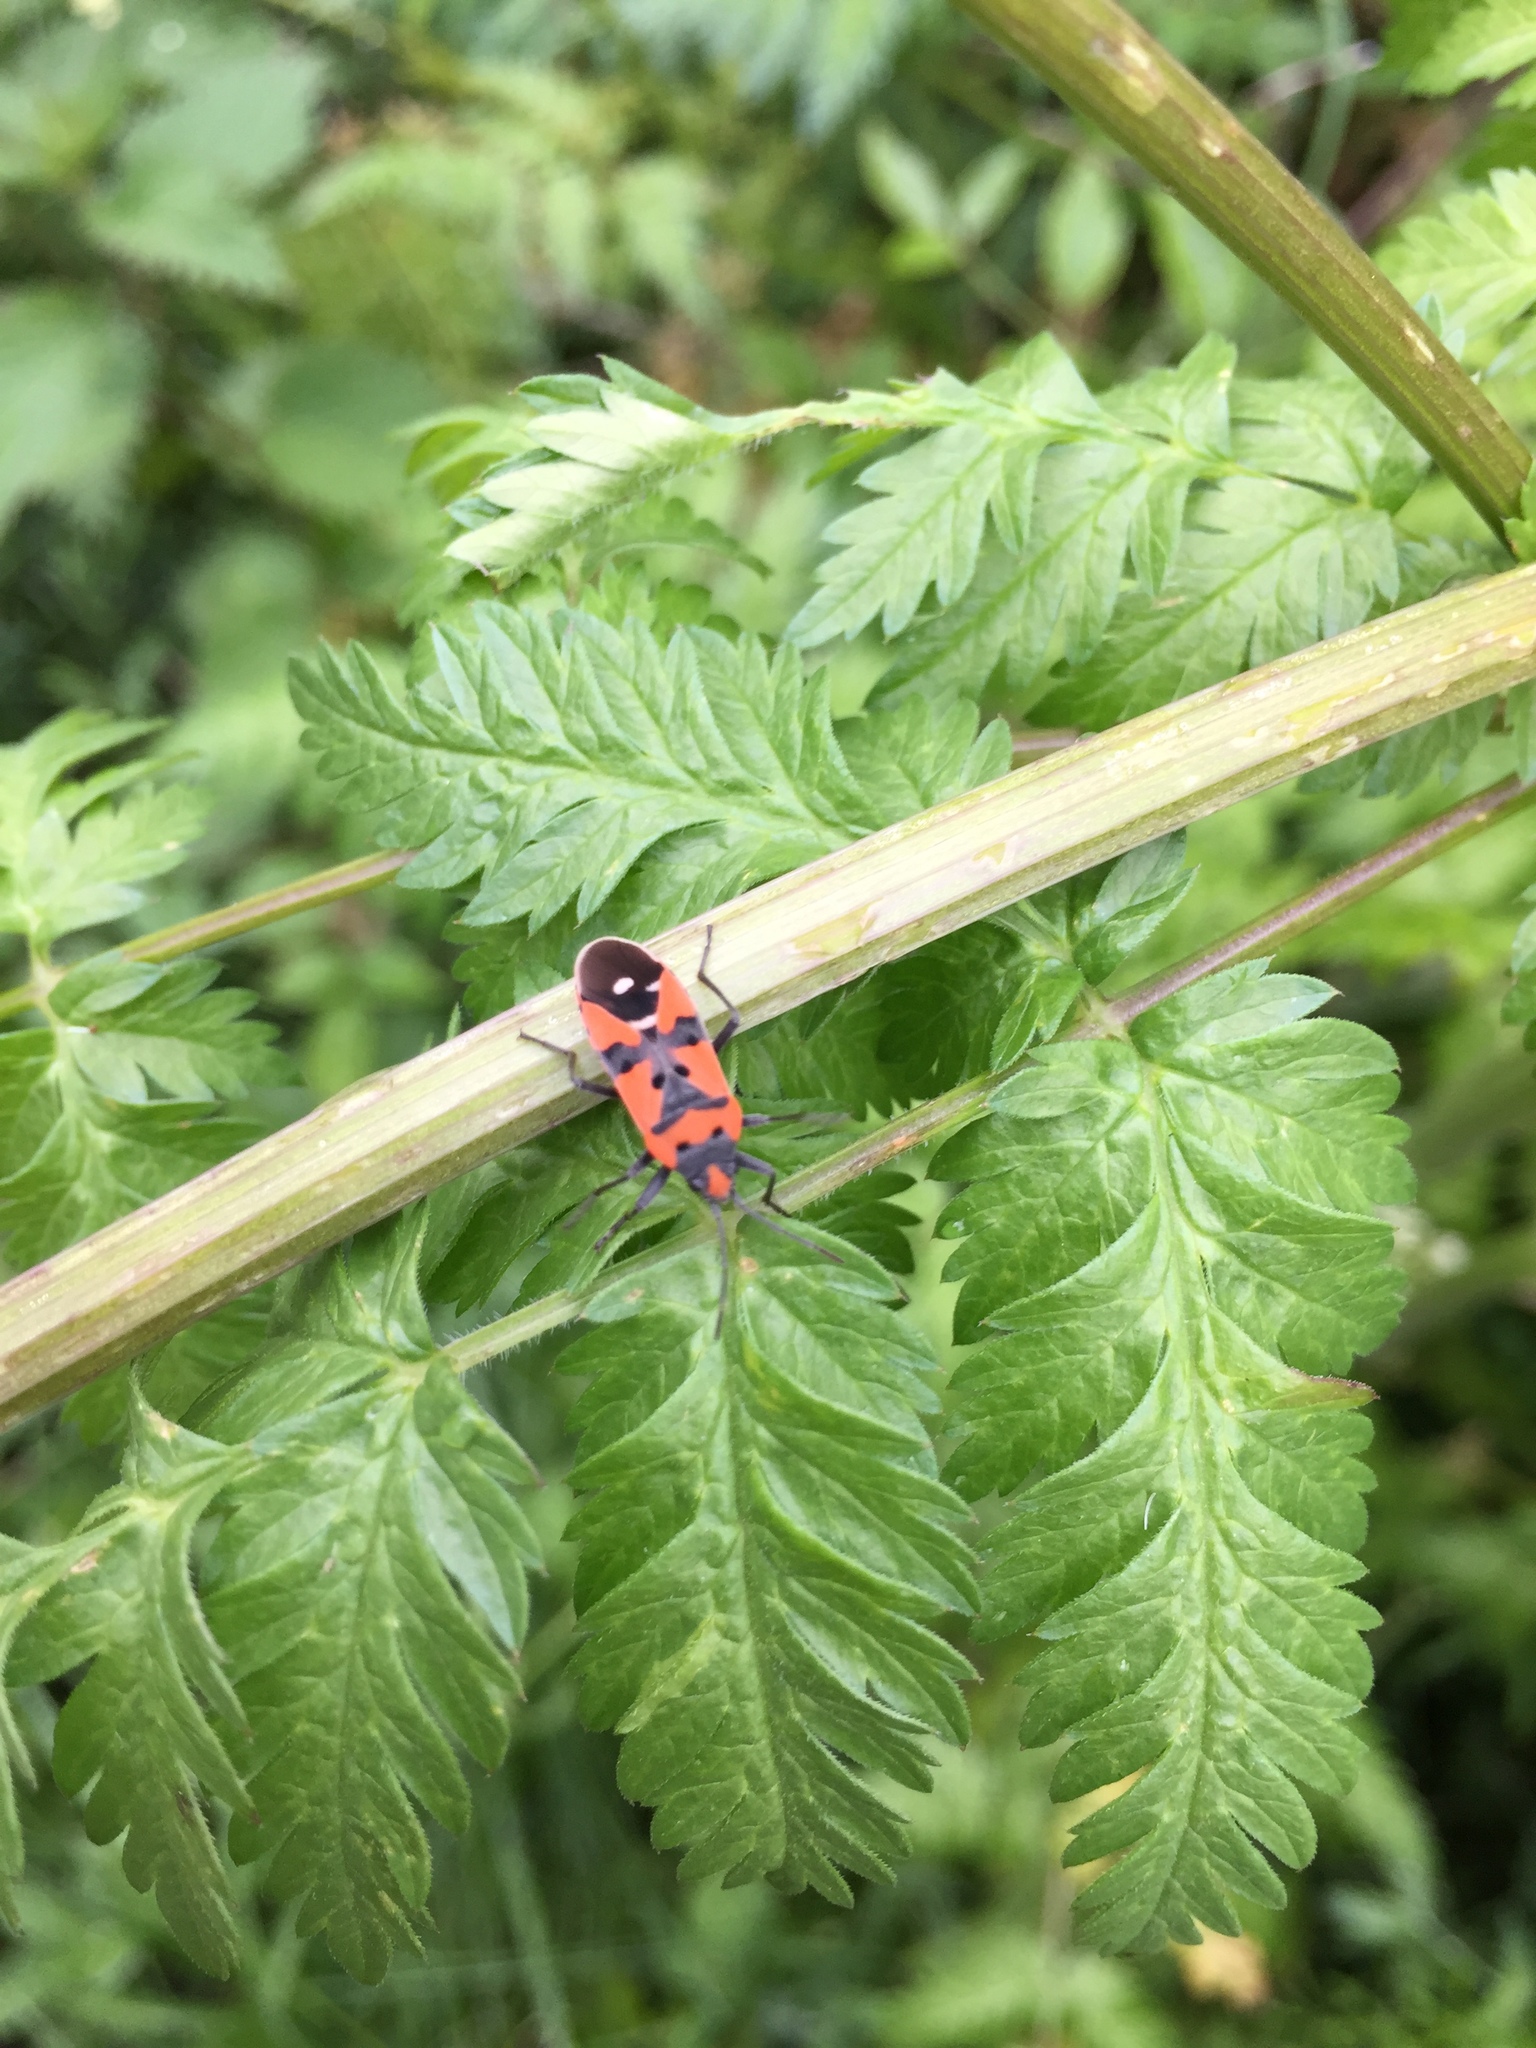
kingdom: Animalia
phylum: Arthropoda
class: Insecta
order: Hemiptera
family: Lygaeidae
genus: Lygaeus
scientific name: Lygaeus equestris
